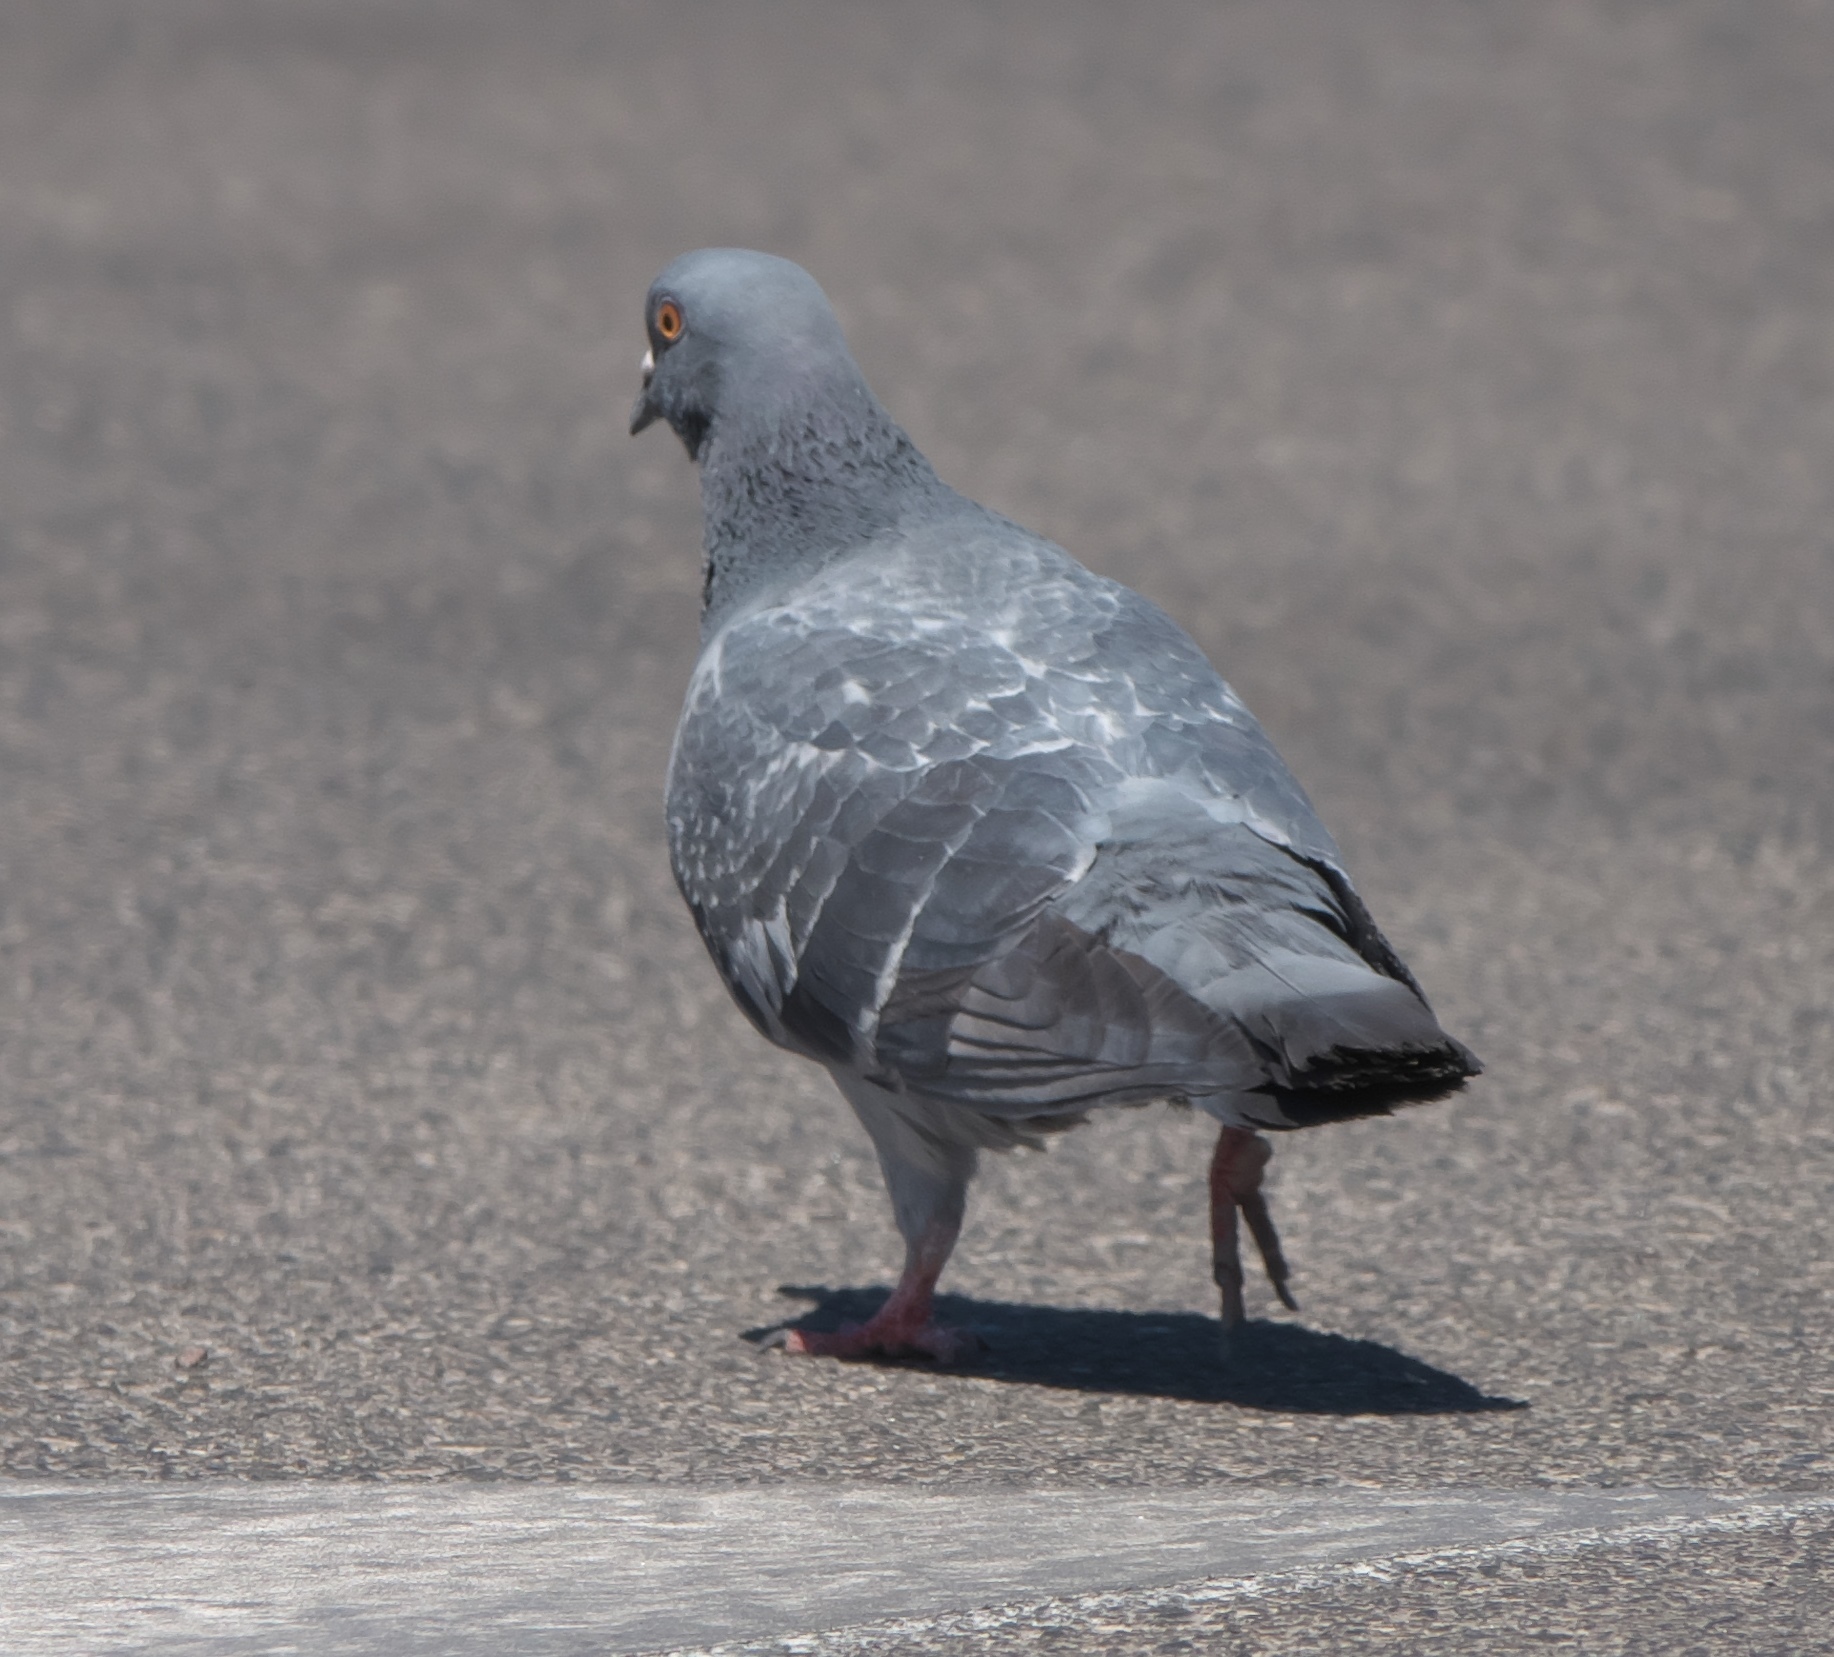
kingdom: Animalia
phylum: Chordata
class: Aves
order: Columbiformes
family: Columbidae
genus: Columba
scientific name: Columba livia
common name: Rock pigeon
